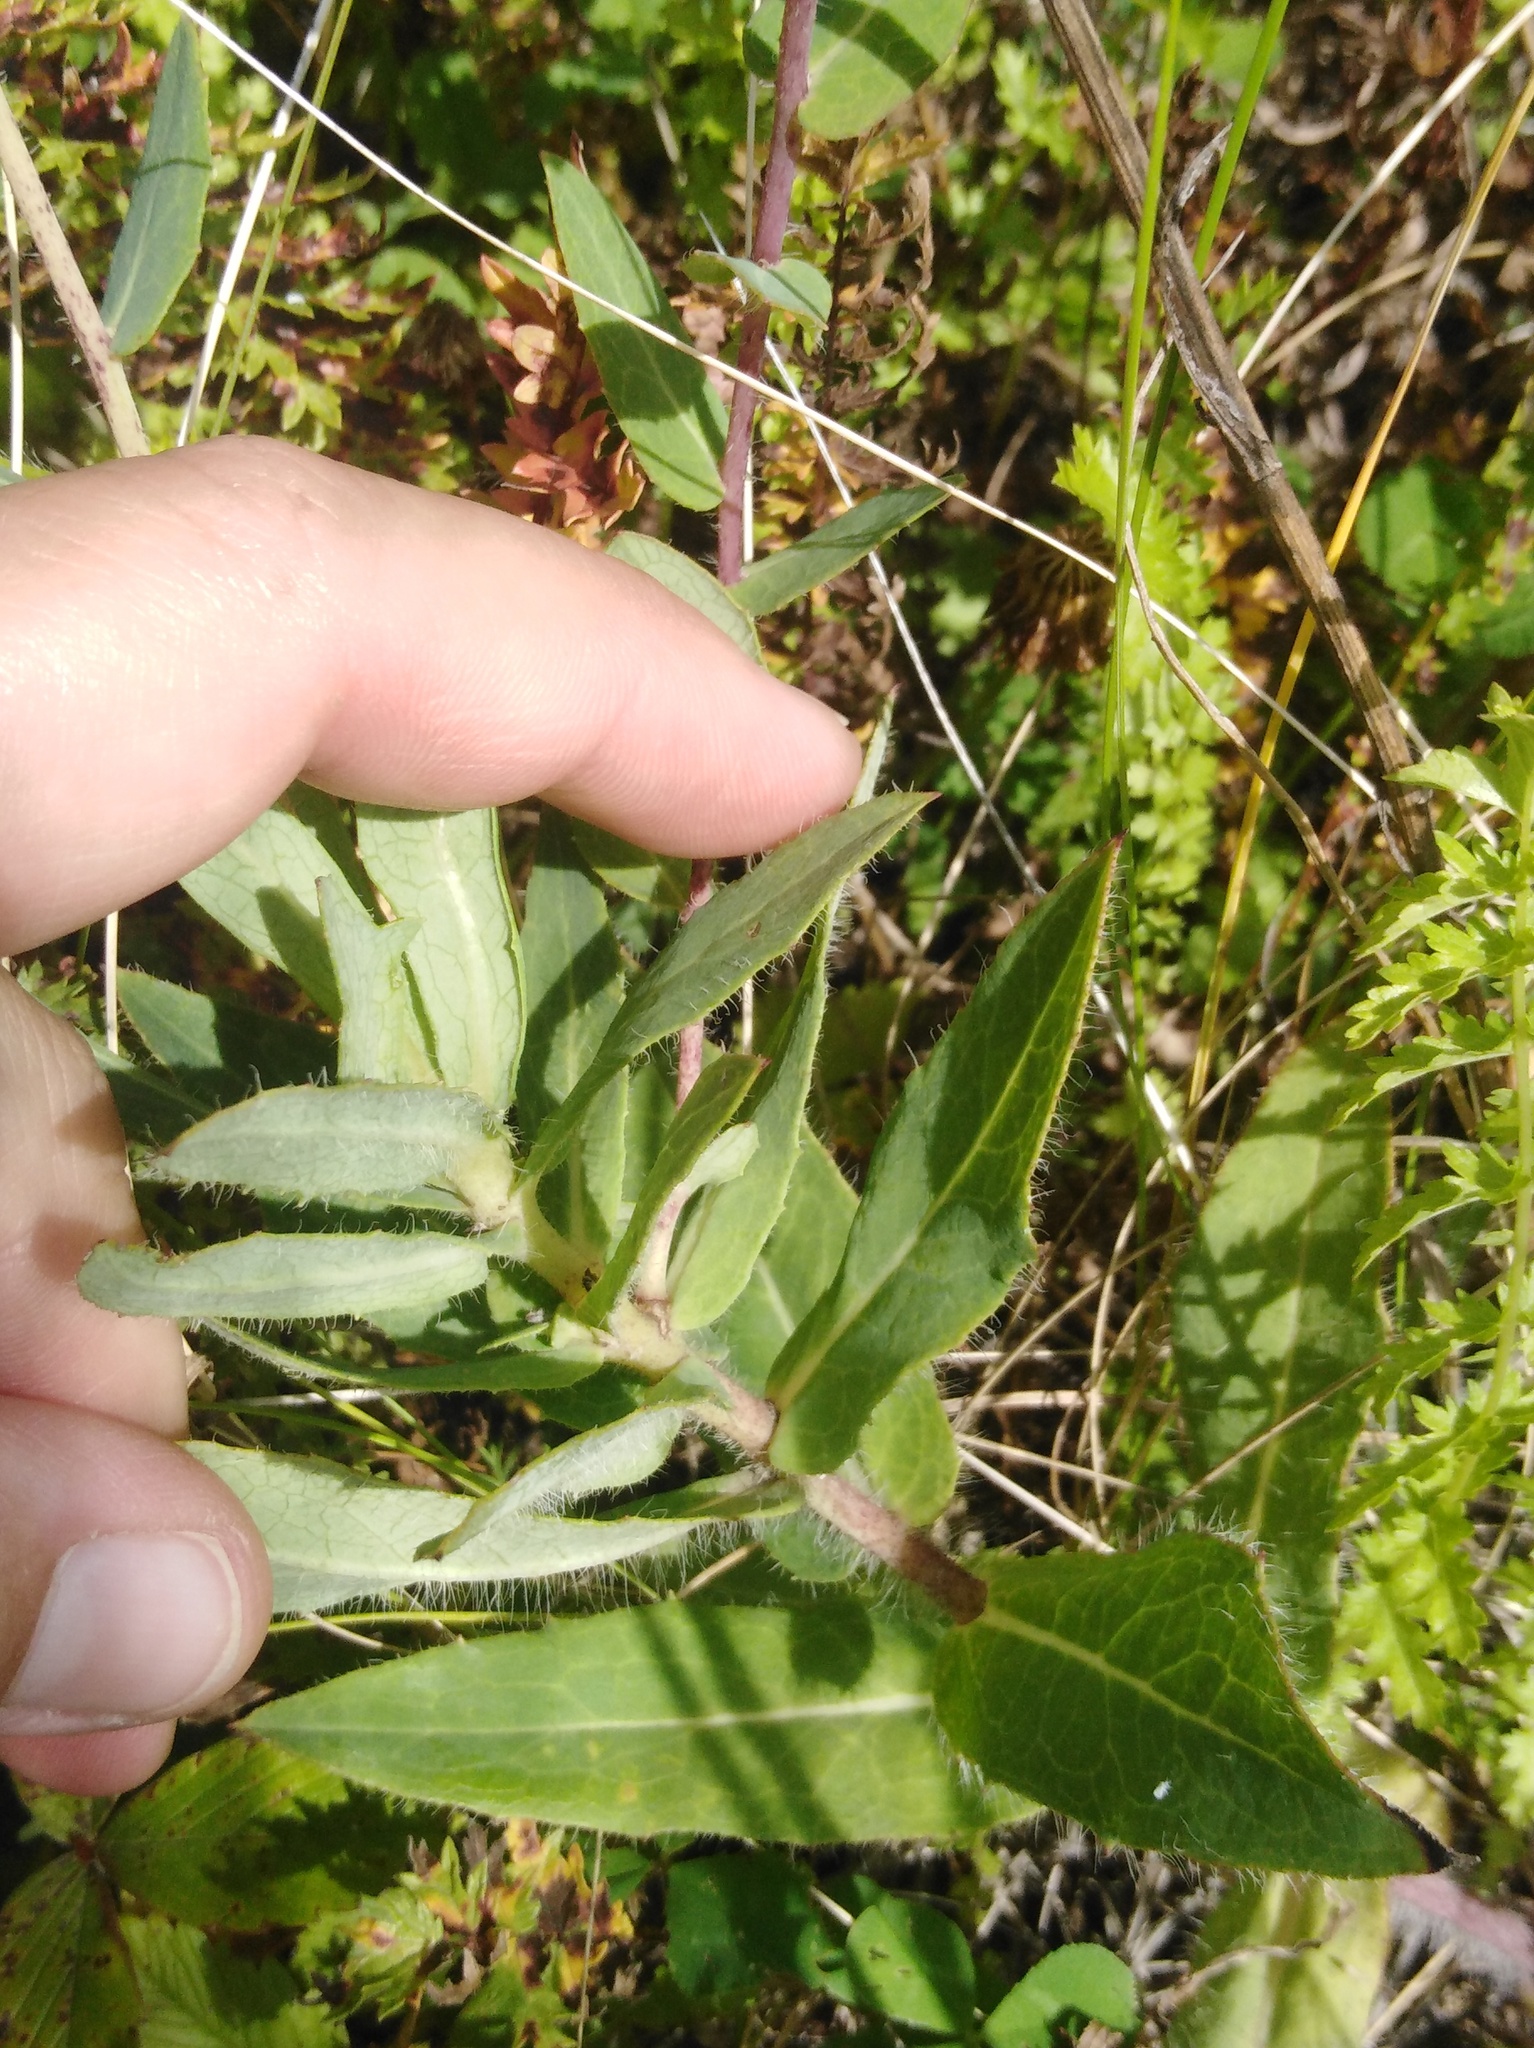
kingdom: Plantae
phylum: Tracheophyta
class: Magnoliopsida
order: Asterales
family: Asteraceae
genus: Hieracium
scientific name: Hieracium virosum
